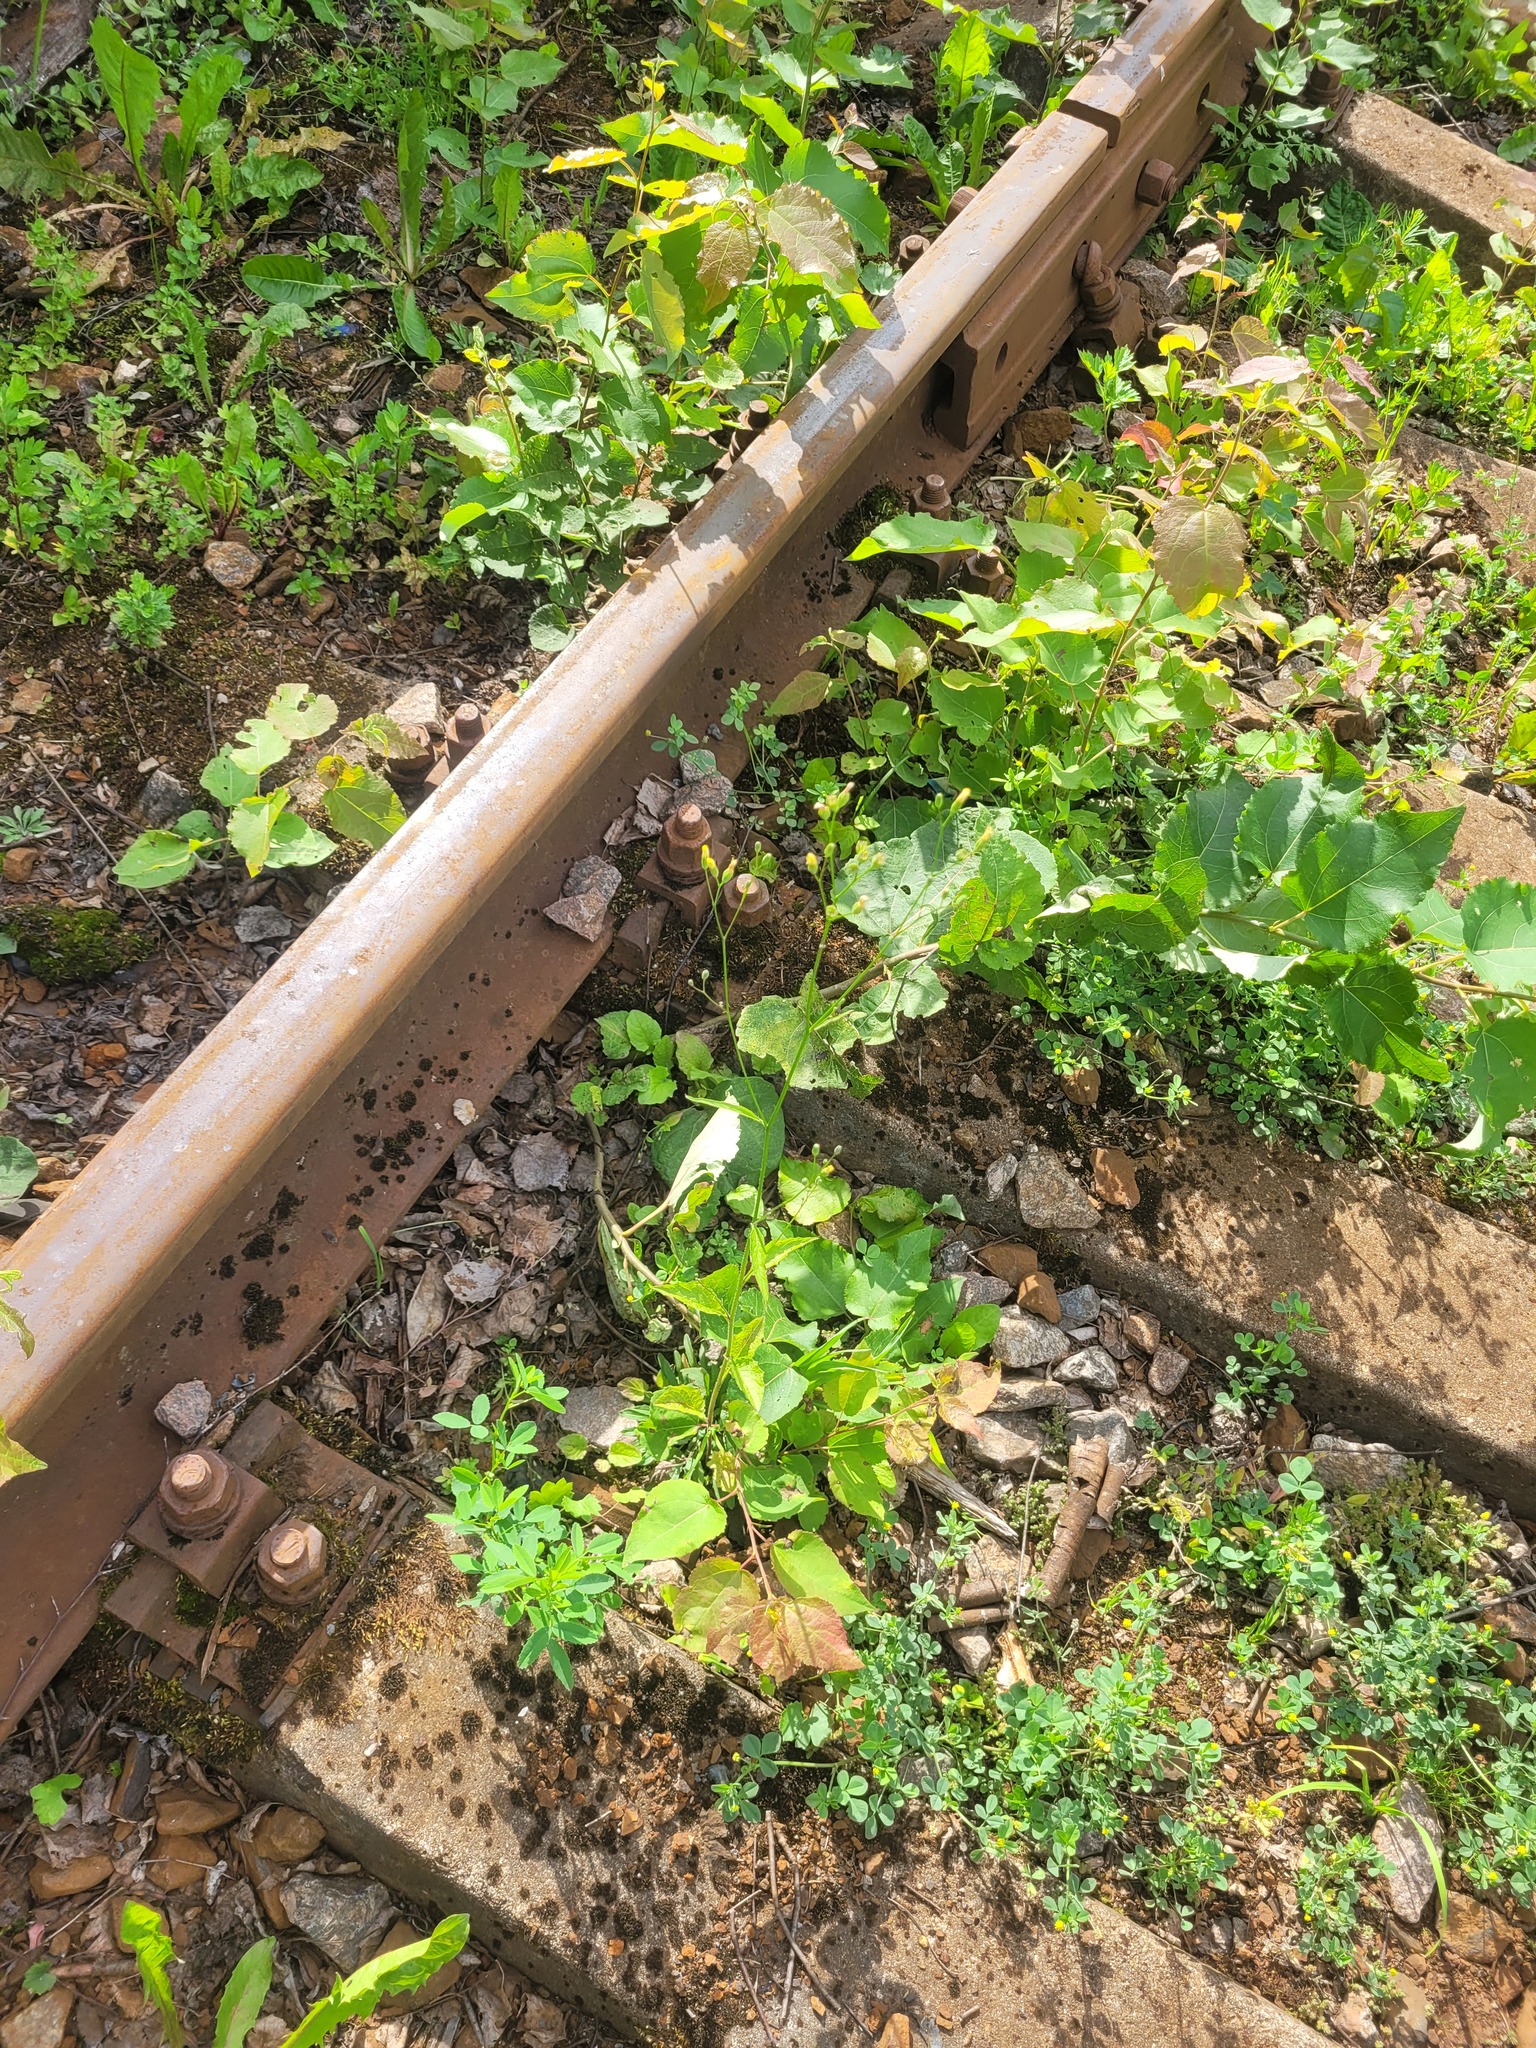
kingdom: Plantae
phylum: Tracheophyta
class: Magnoliopsida
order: Asterales
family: Asteraceae
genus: Lapsana
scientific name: Lapsana communis
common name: Nipplewort
